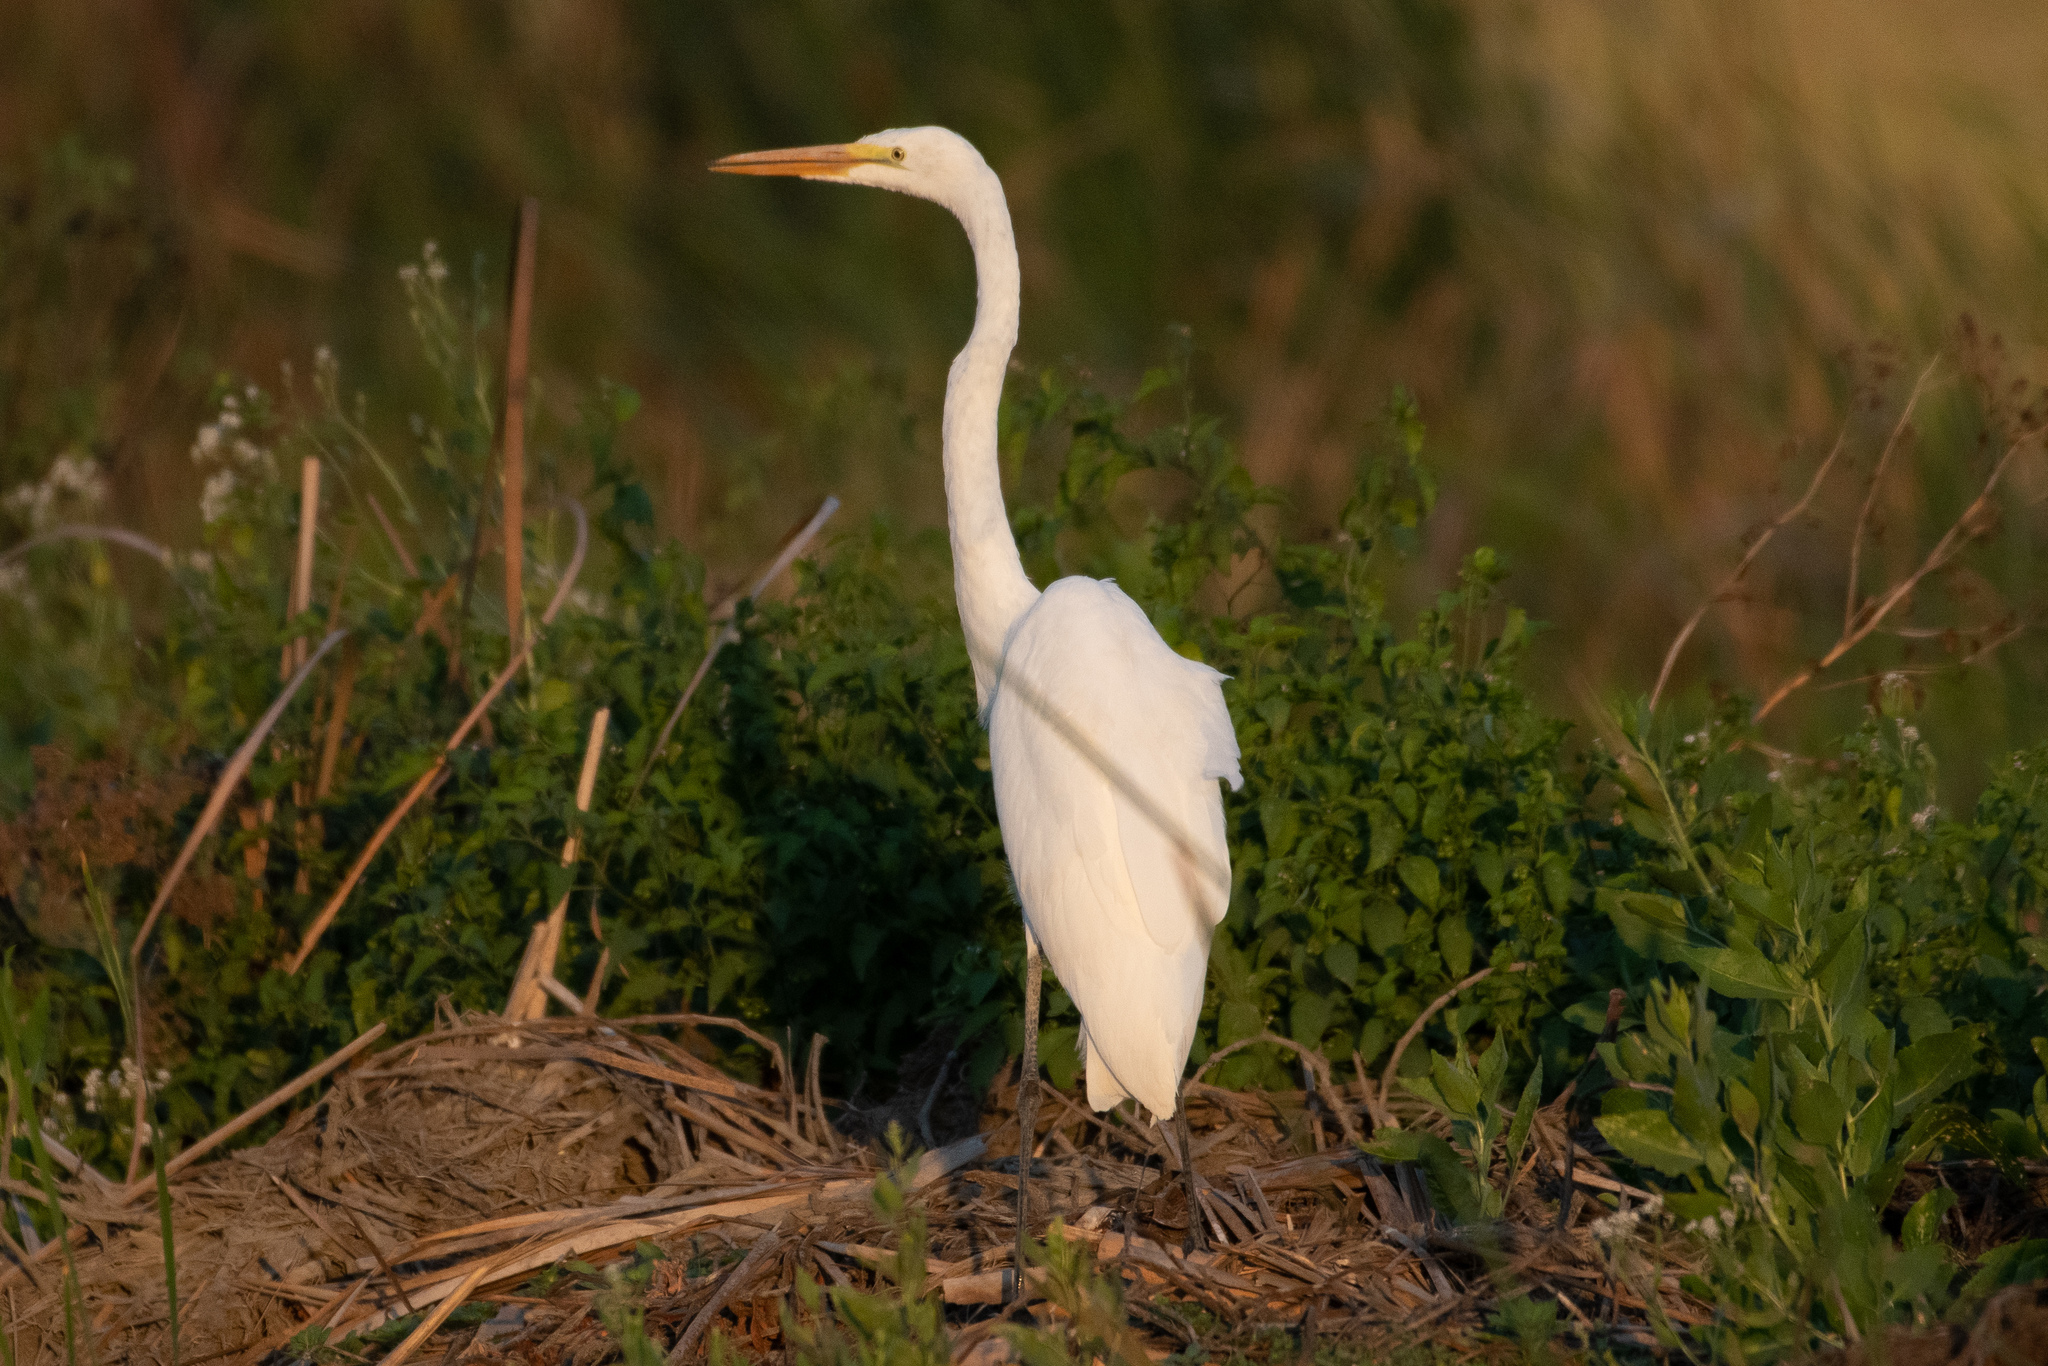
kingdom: Animalia
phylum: Chordata
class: Aves
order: Pelecaniformes
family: Ardeidae
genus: Ardea
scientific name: Ardea alba
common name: Great egret
